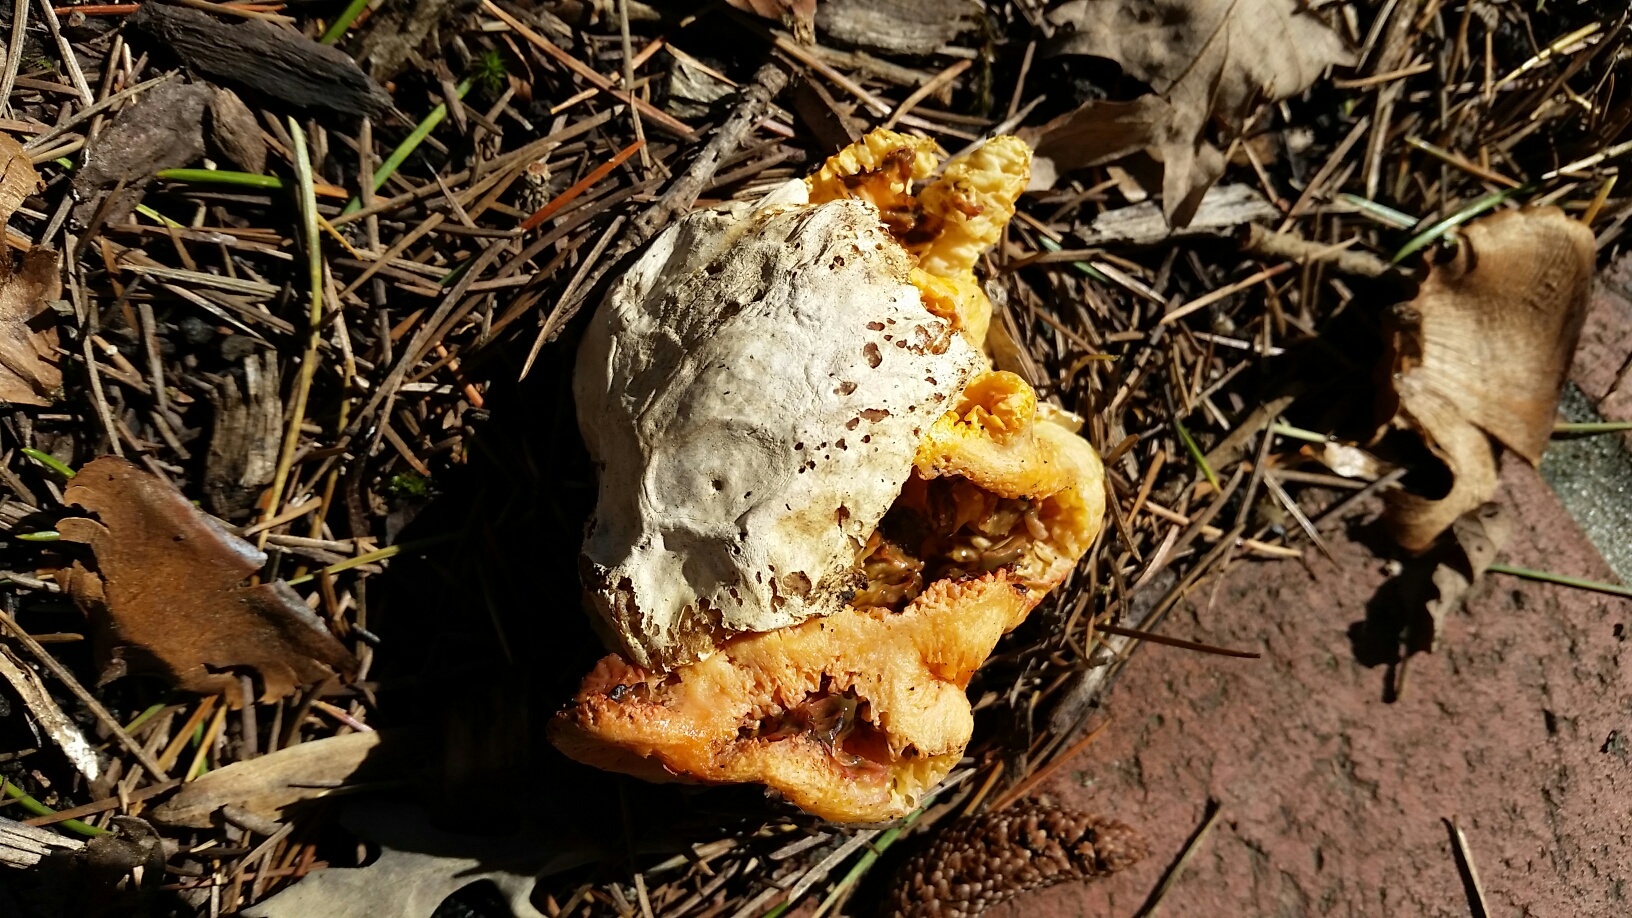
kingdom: Fungi
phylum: Basidiomycota
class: Agaricomycetes
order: Phallales
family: Phallaceae
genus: Clathrus
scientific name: Clathrus ruber
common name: Red cage
